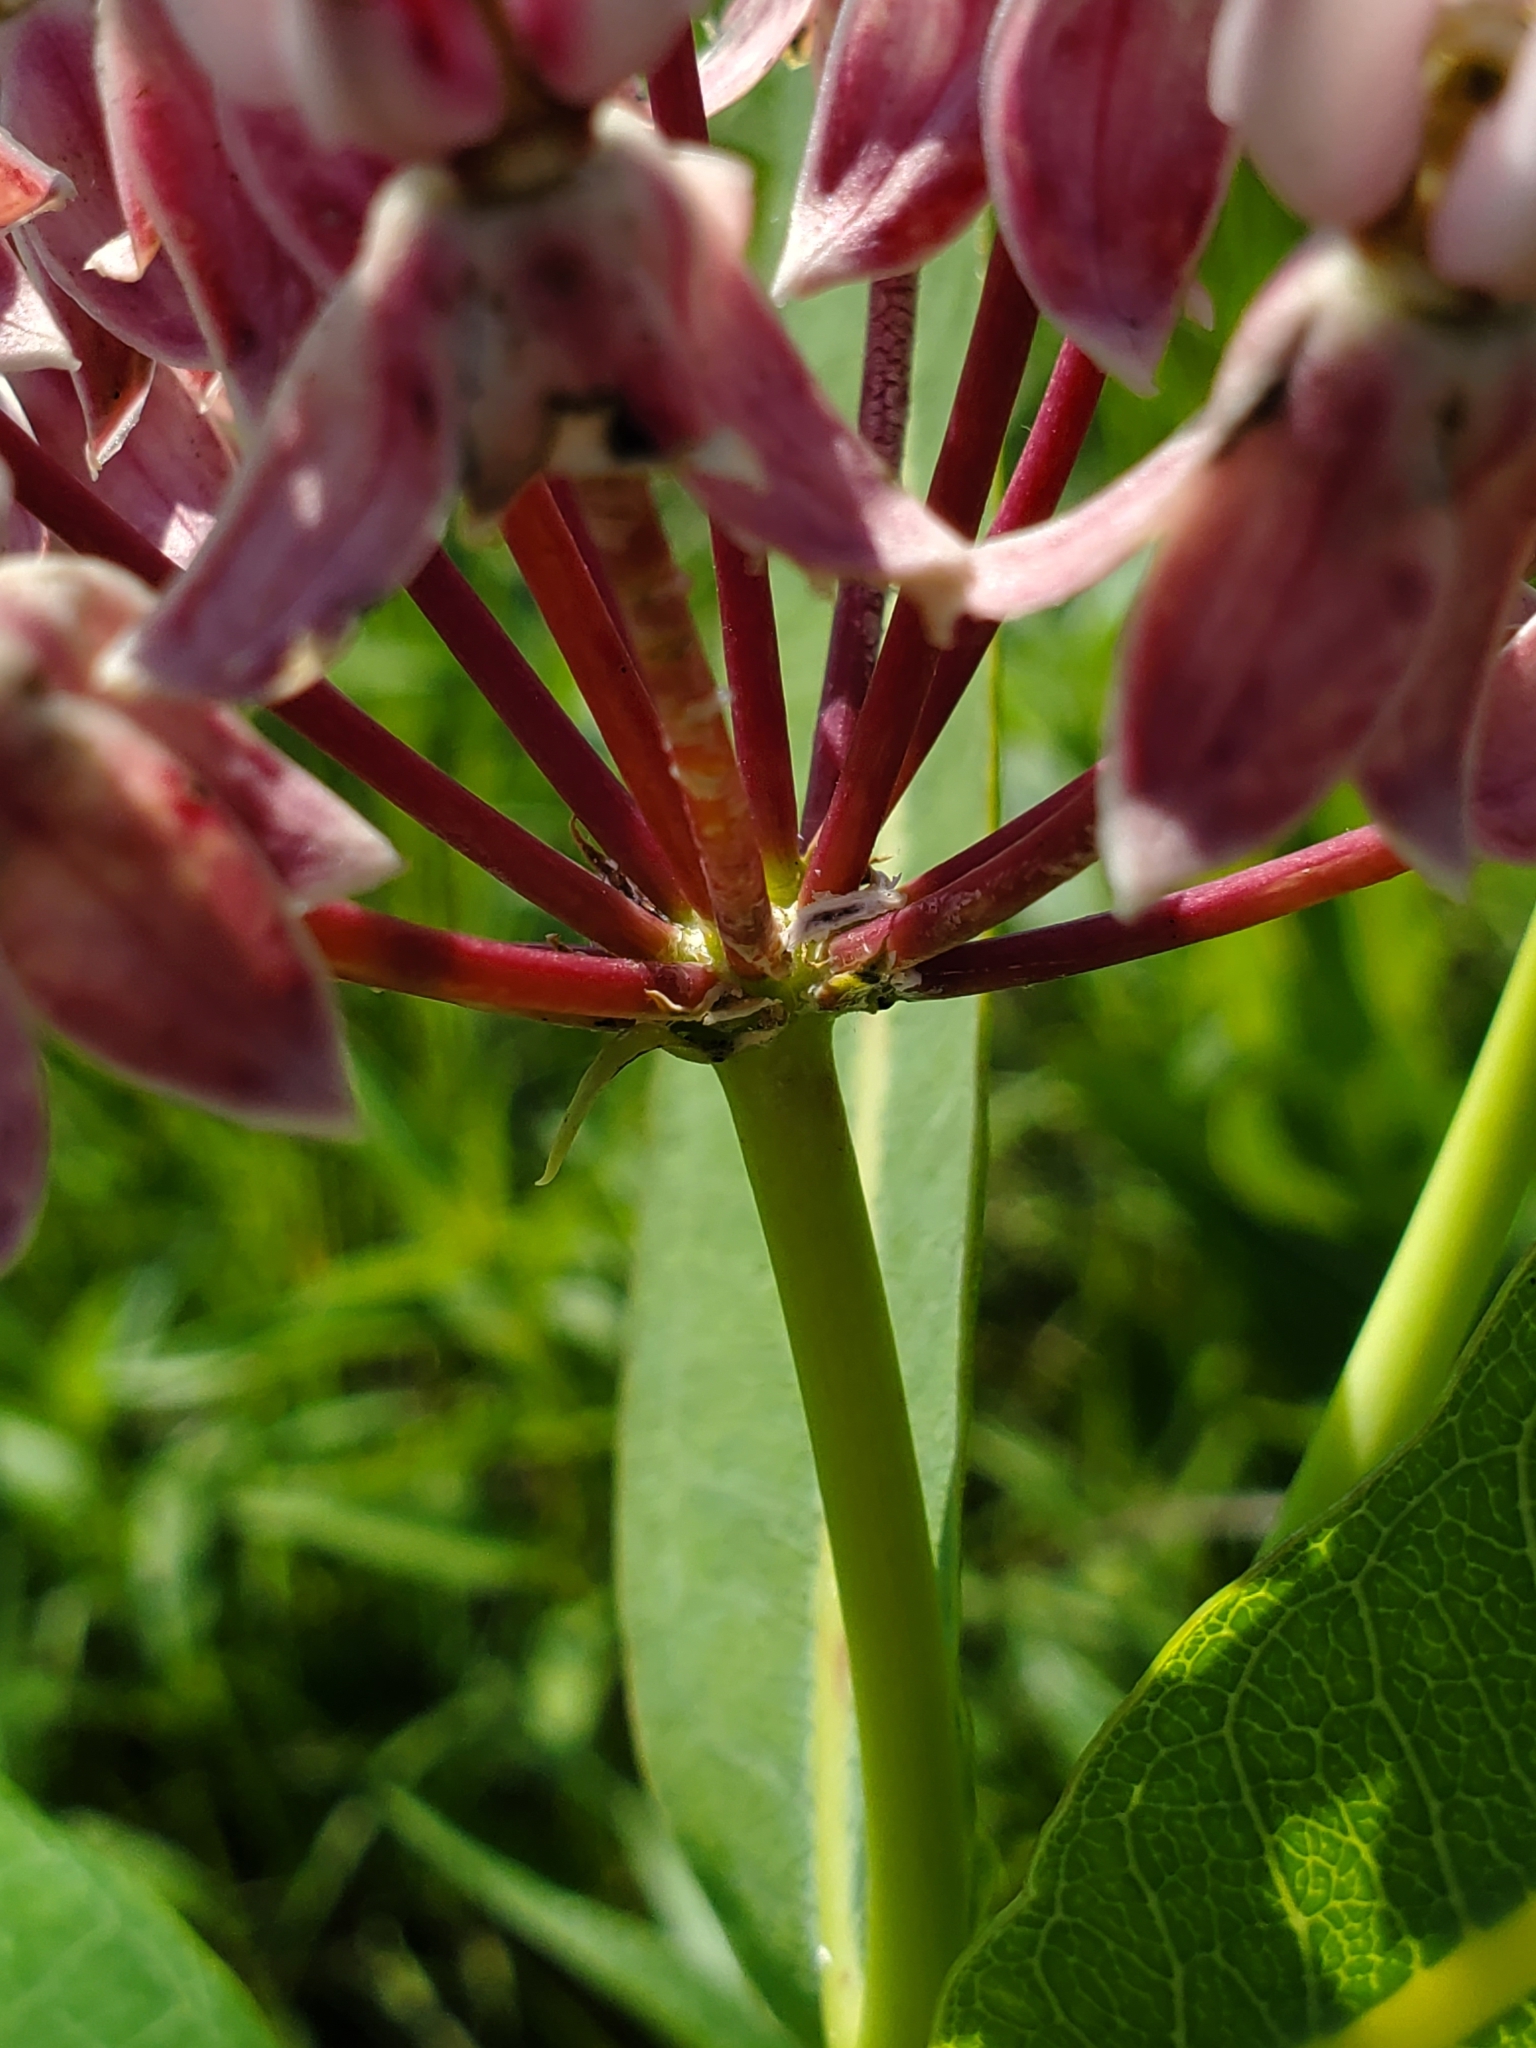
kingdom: Plantae
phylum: Tracheophyta
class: Magnoliopsida
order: Gentianales
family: Apocynaceae
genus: Asclepias
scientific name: Asclepias sullivantii
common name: Prairie milkweed
